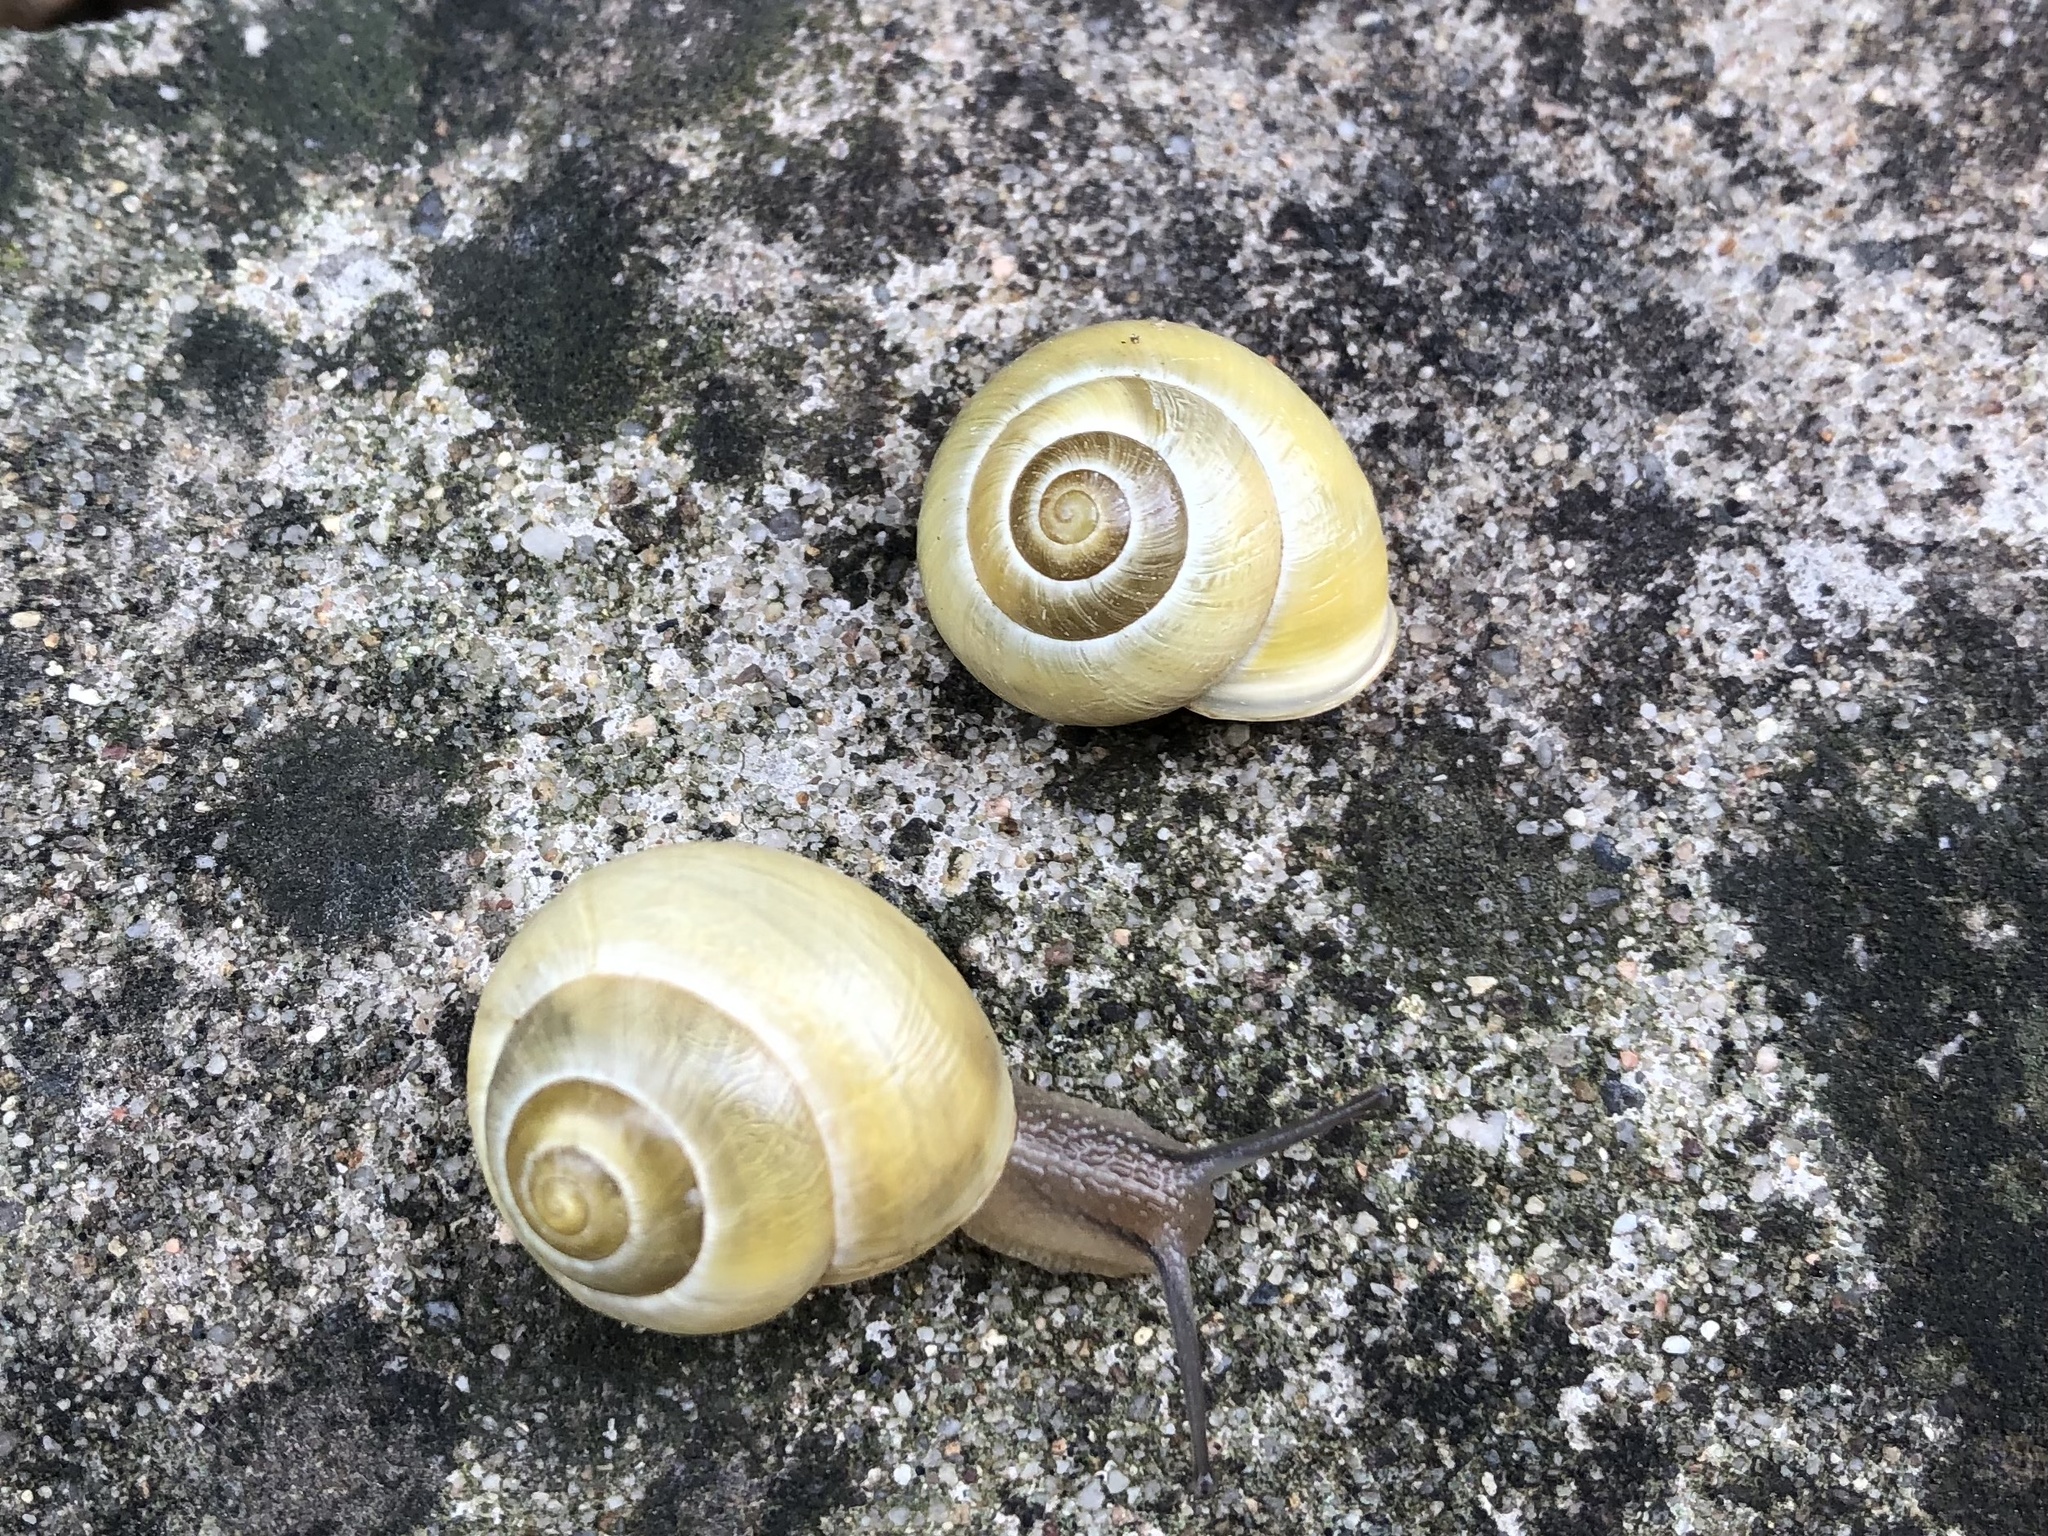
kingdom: Animalia
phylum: Mollusca
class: Gastropoda
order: Stylommatophora
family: Helicidae
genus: Cepaea
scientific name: Cepaea hortensis
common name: White-lip gardensnail
